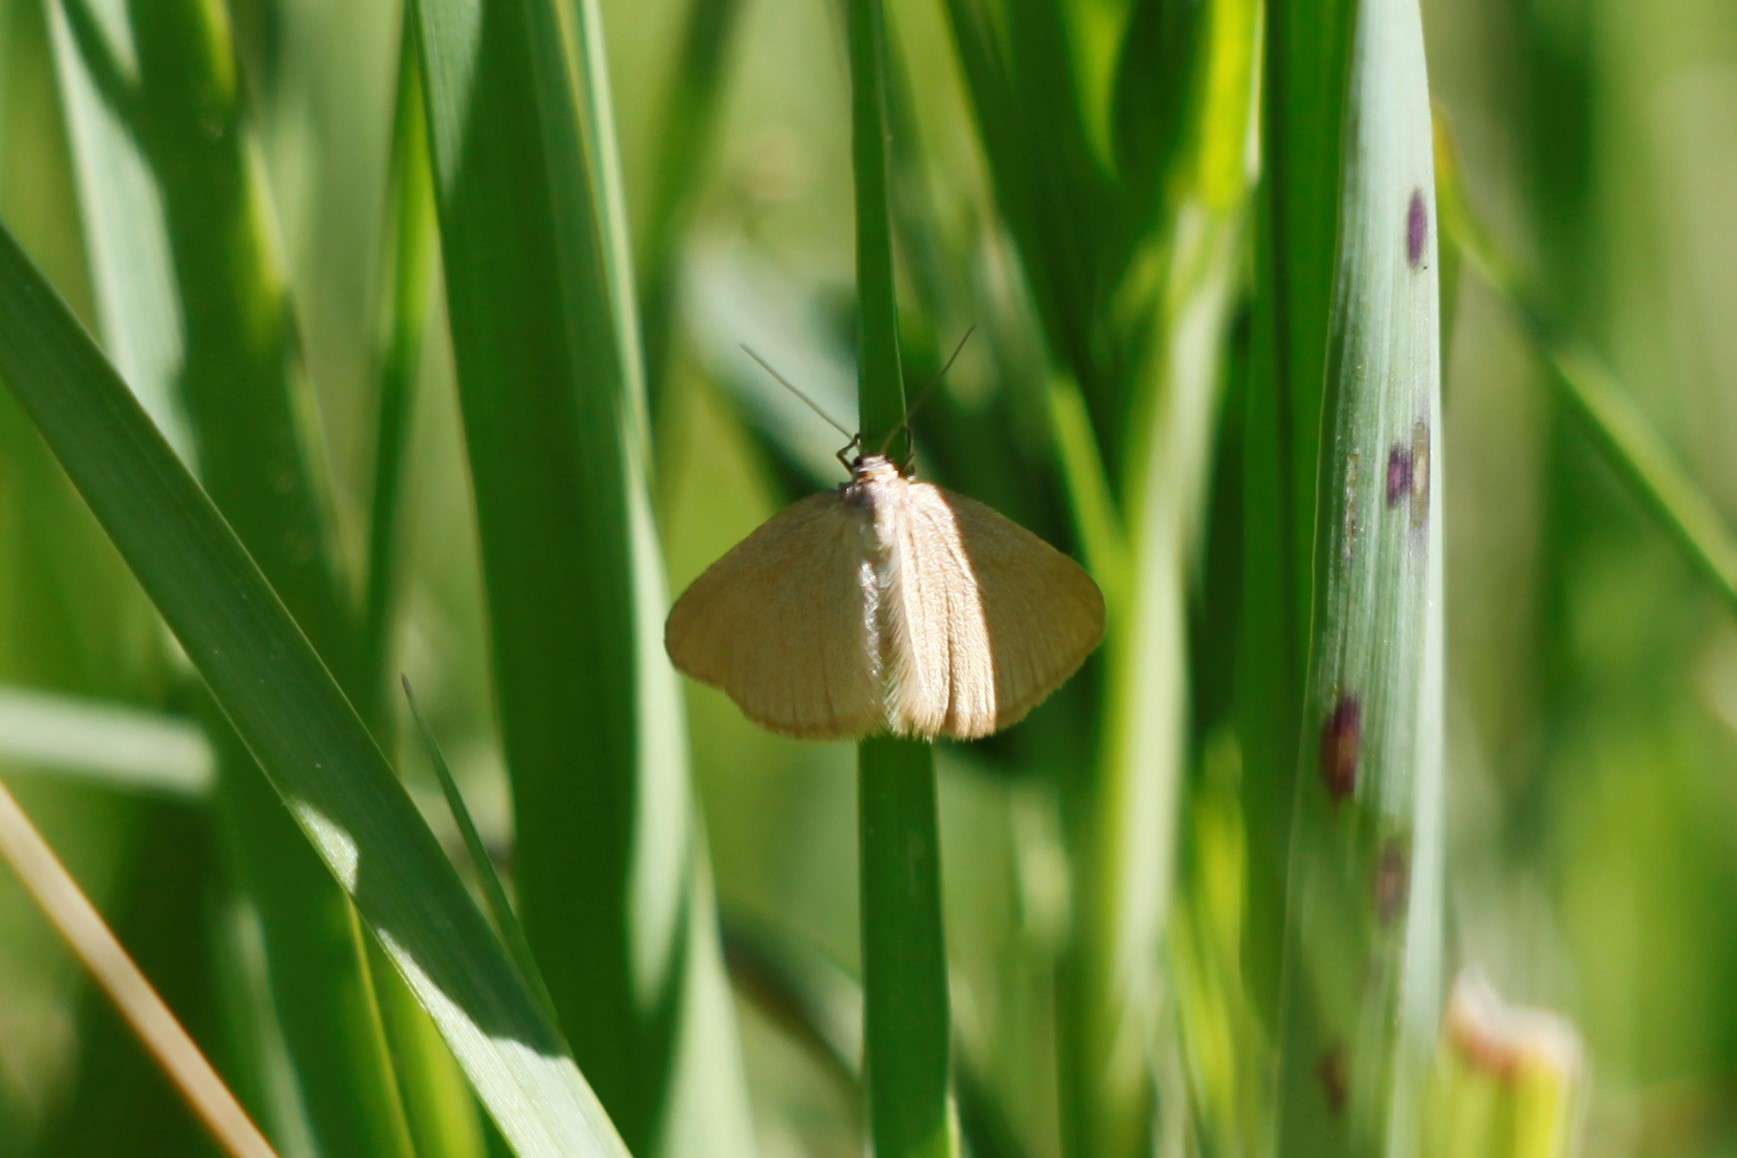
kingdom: Animalia
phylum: Arthropoda
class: Insecta
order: Lepidoptera
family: Geometridae
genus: Minoa
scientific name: Minoa murinata
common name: Drab looper
